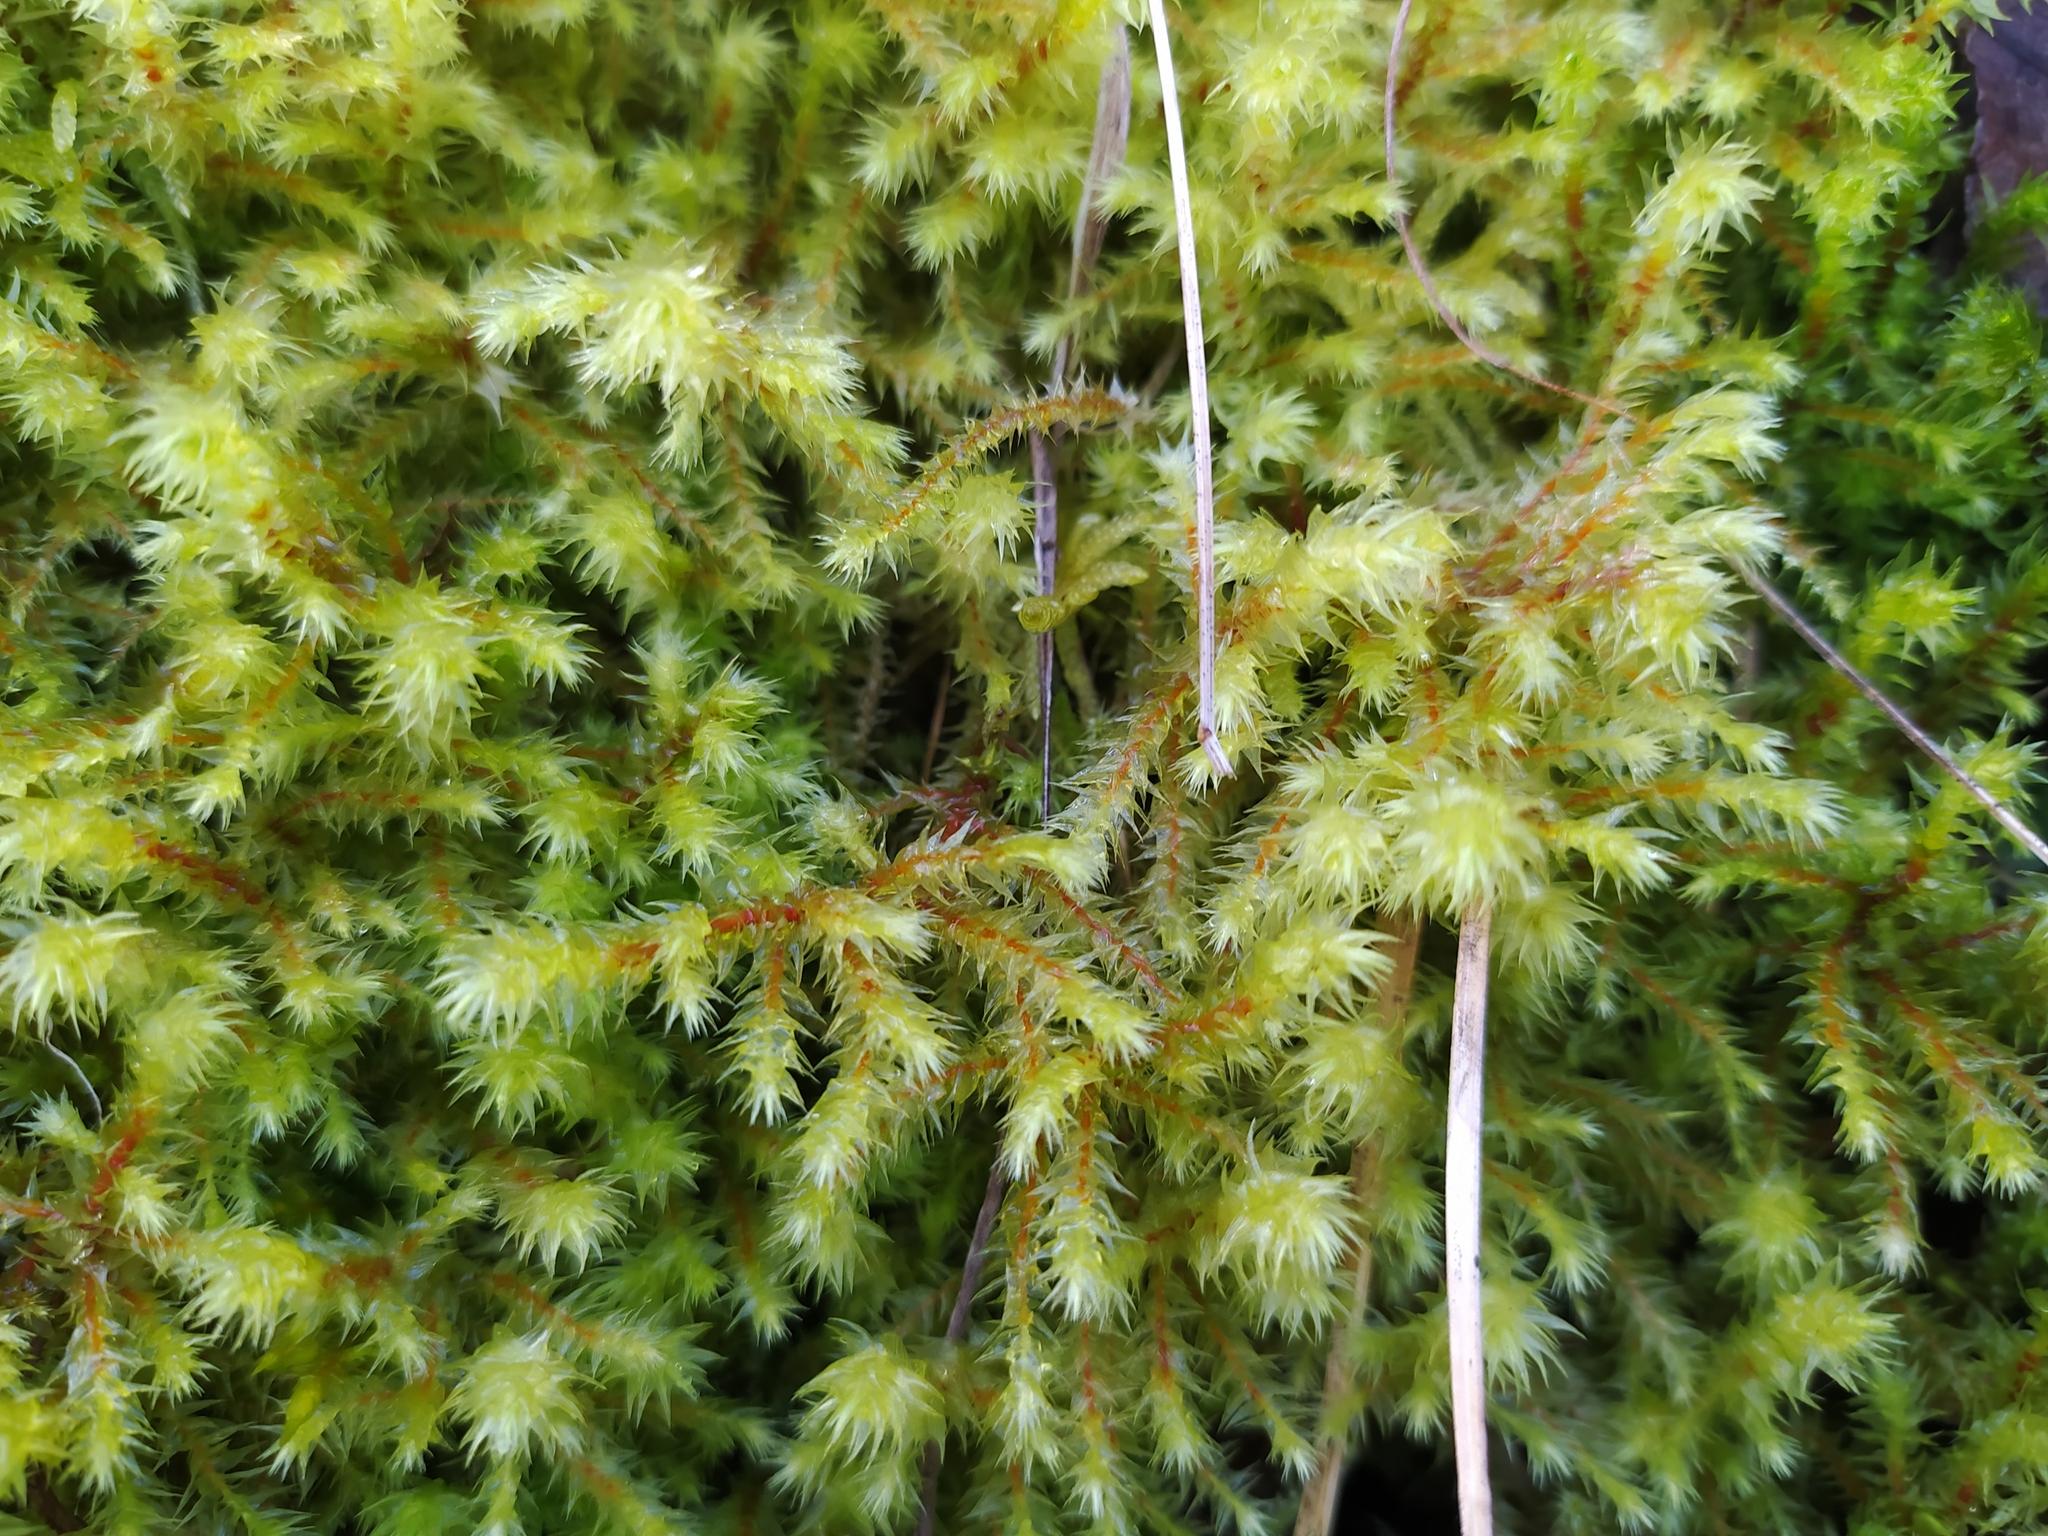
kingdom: Plantae
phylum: Bryophyta
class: Bryopsida
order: Hypnales
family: Hylocomiaceae
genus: Hylocomiadelphus
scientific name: Hylocomiadelphus triquetrus
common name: Rough goose neck moss
